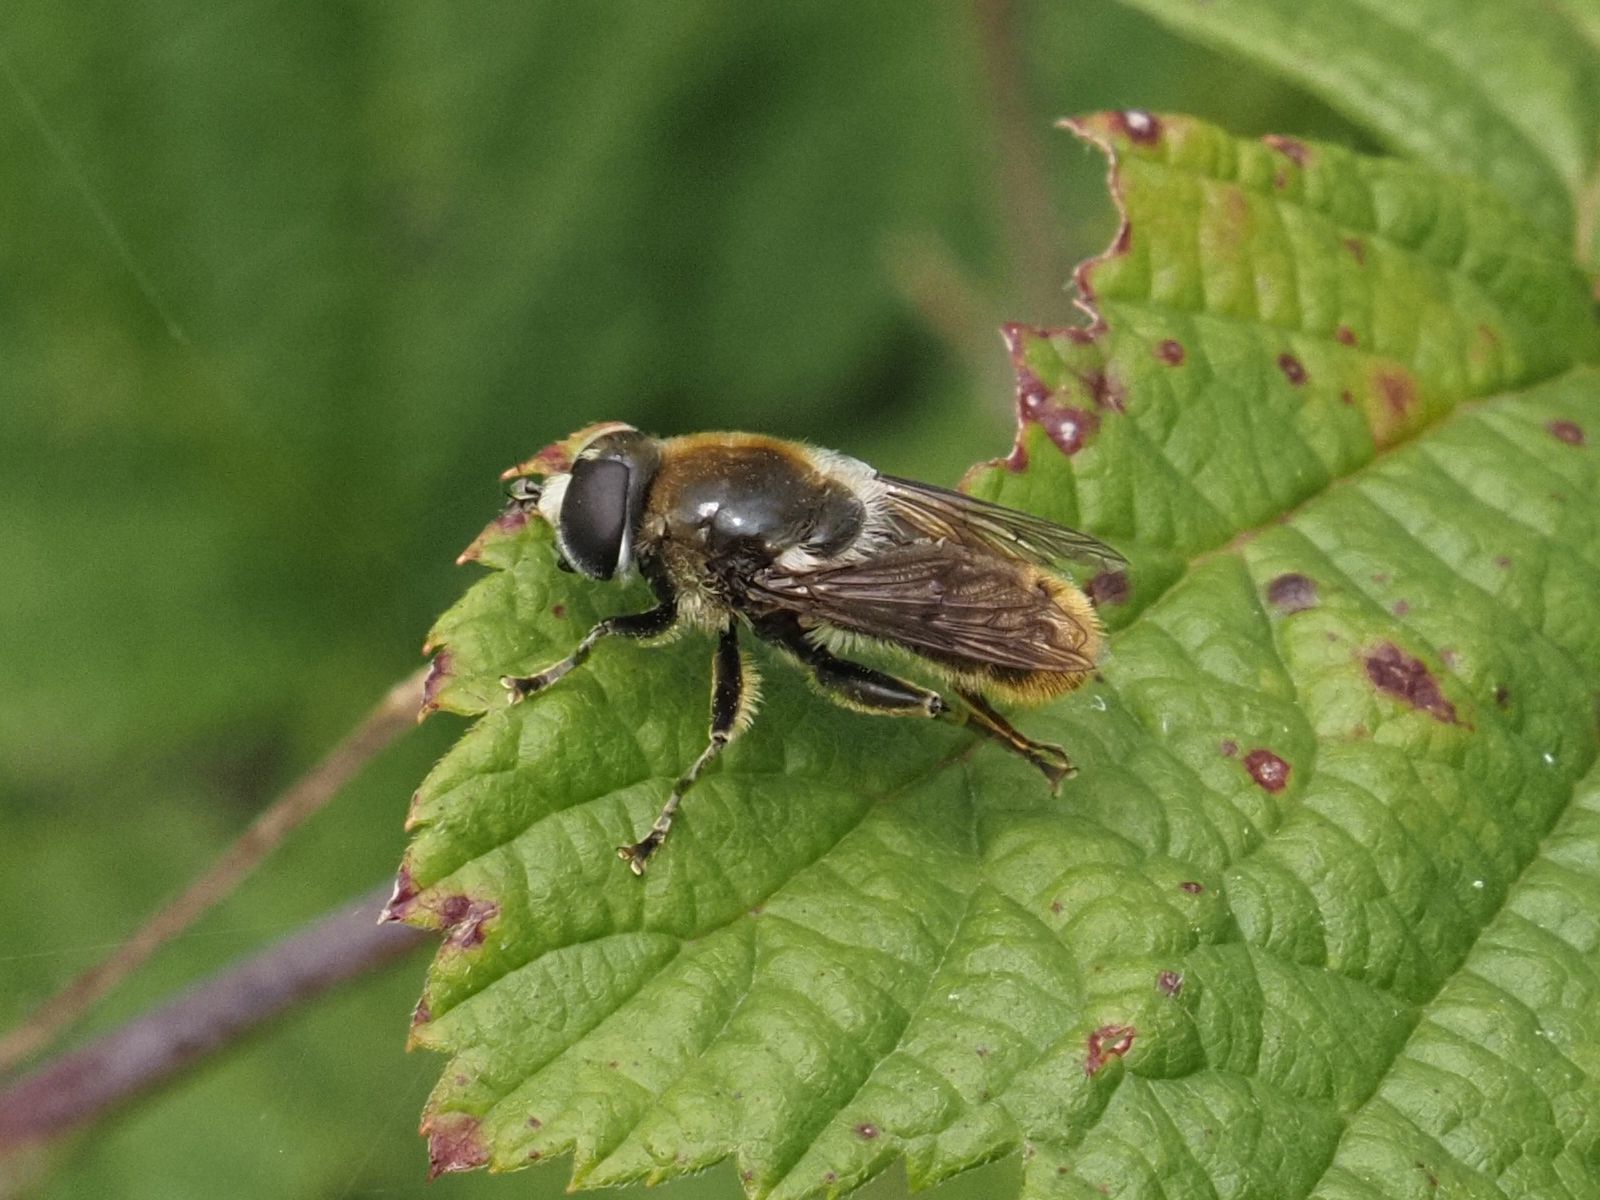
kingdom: Animalia
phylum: Arthropoda
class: Insecta
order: Diptera
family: Syrphidae
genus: Merodon
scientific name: Merodon constans
